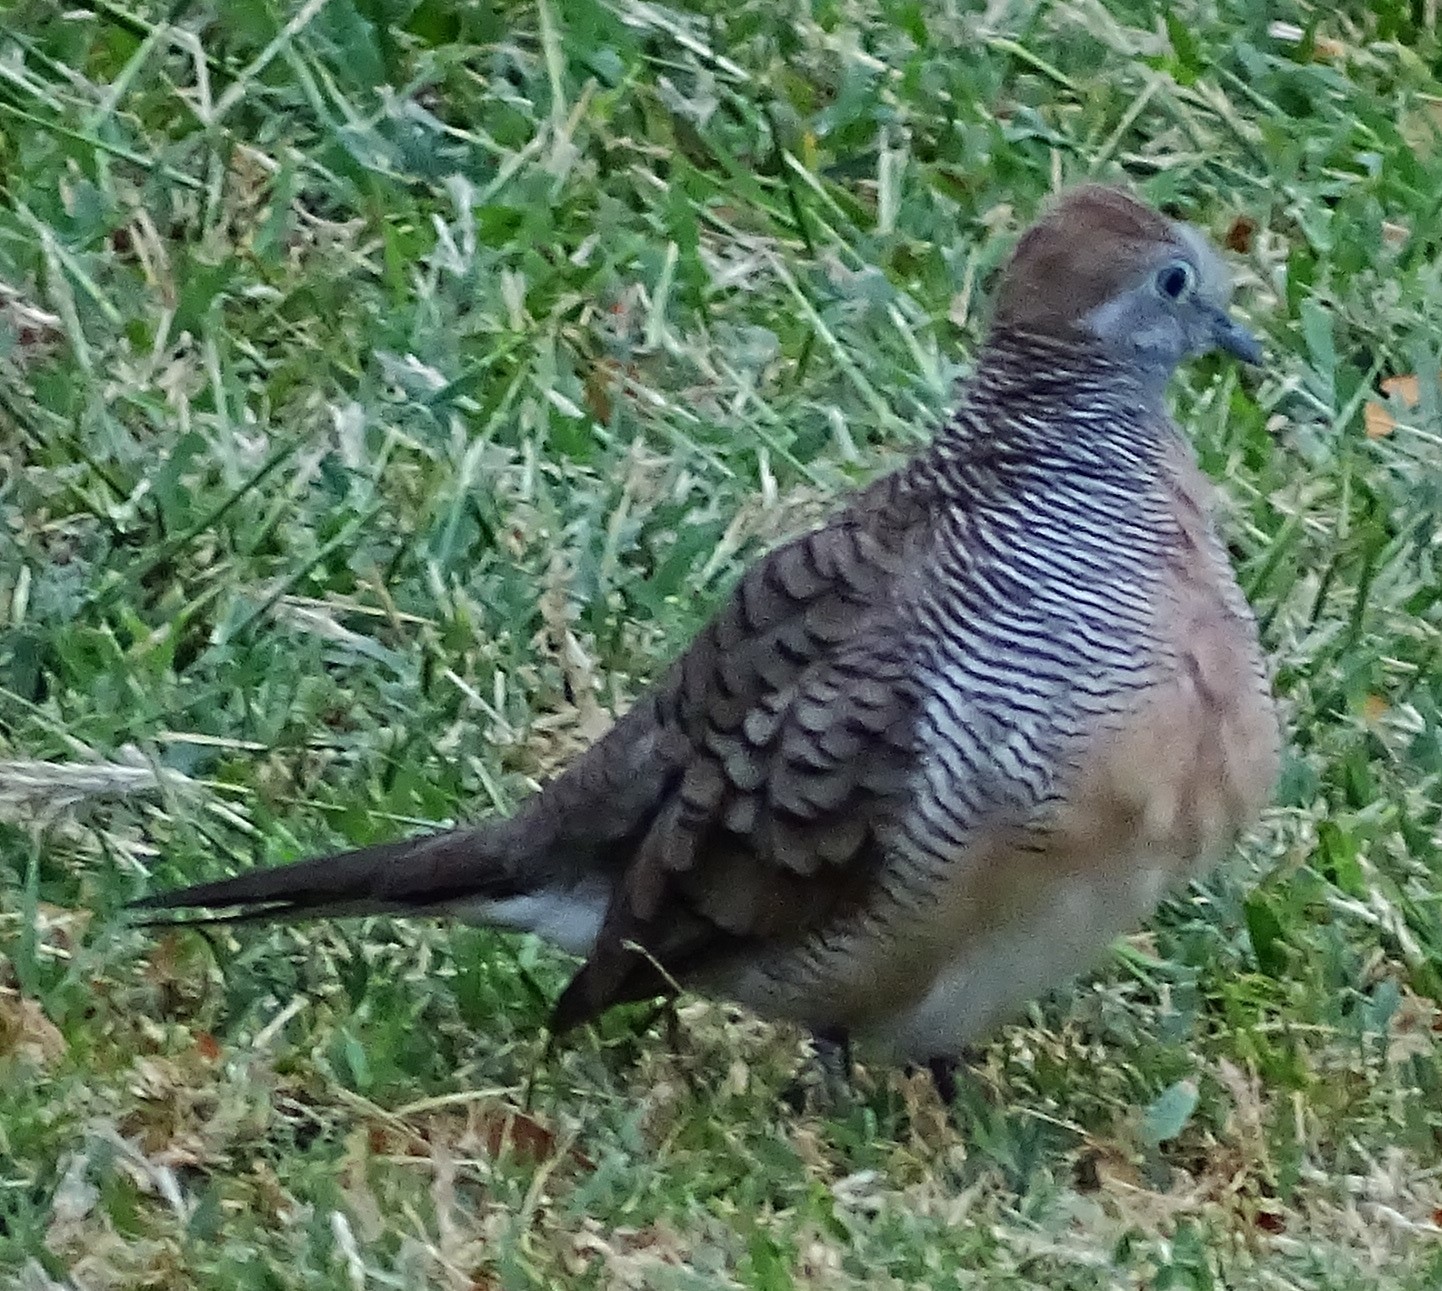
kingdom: Animalia
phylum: Chordata
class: Aves
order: Columbiformes
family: Columbidae
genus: Geopelia
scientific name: Geopelia striata
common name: Zebra dove
